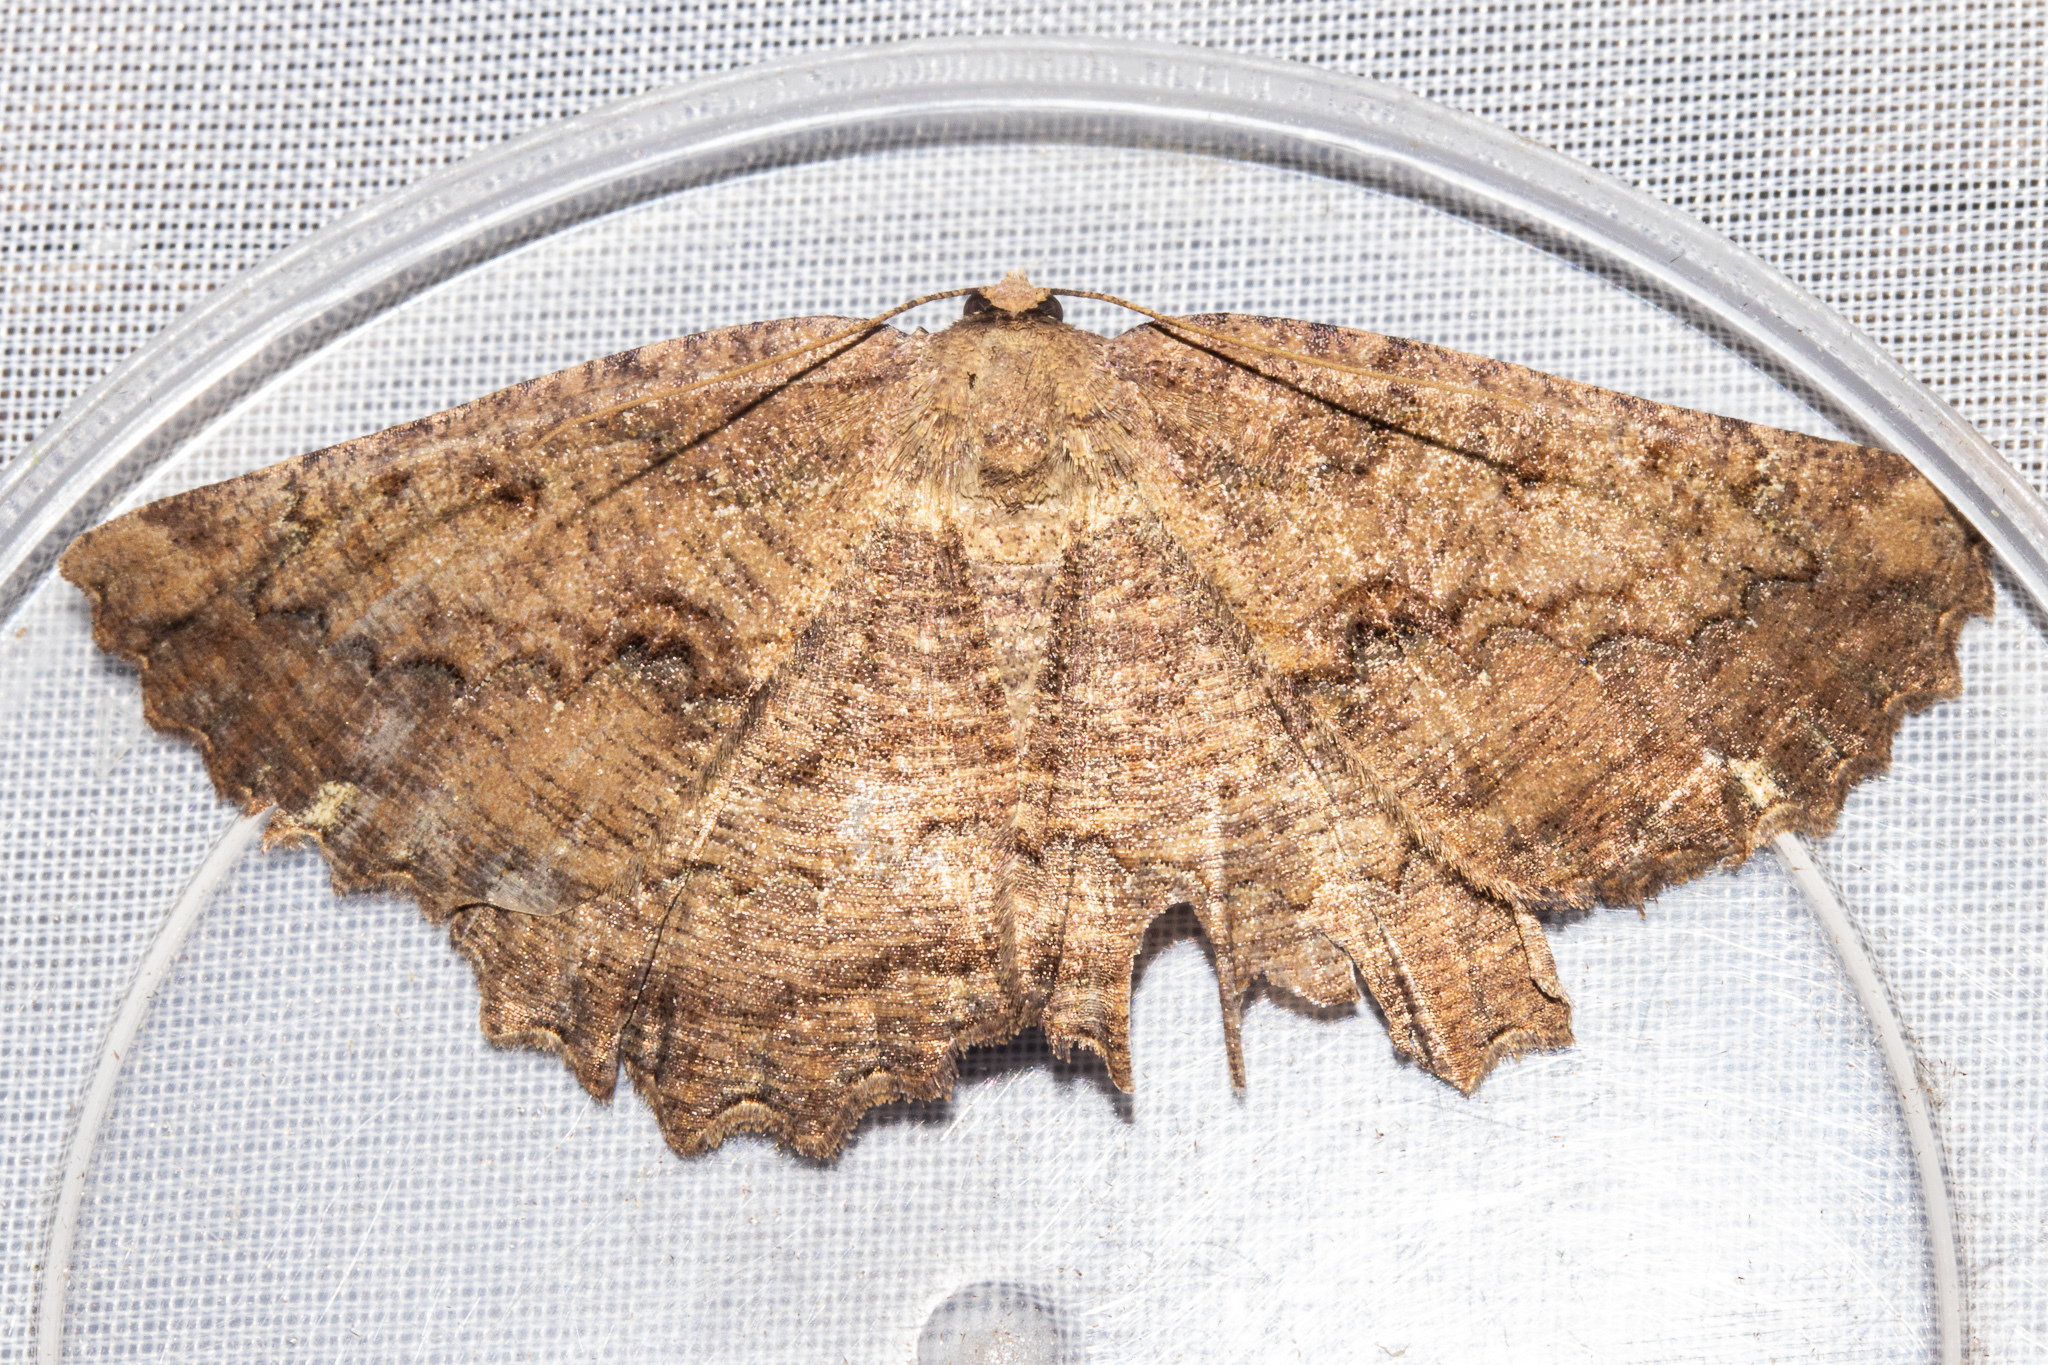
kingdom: Animalia
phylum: Arthropoda
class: Insecta
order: Lepidoptera
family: Geometridae
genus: Gellonia
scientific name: Gellonia pannularia
